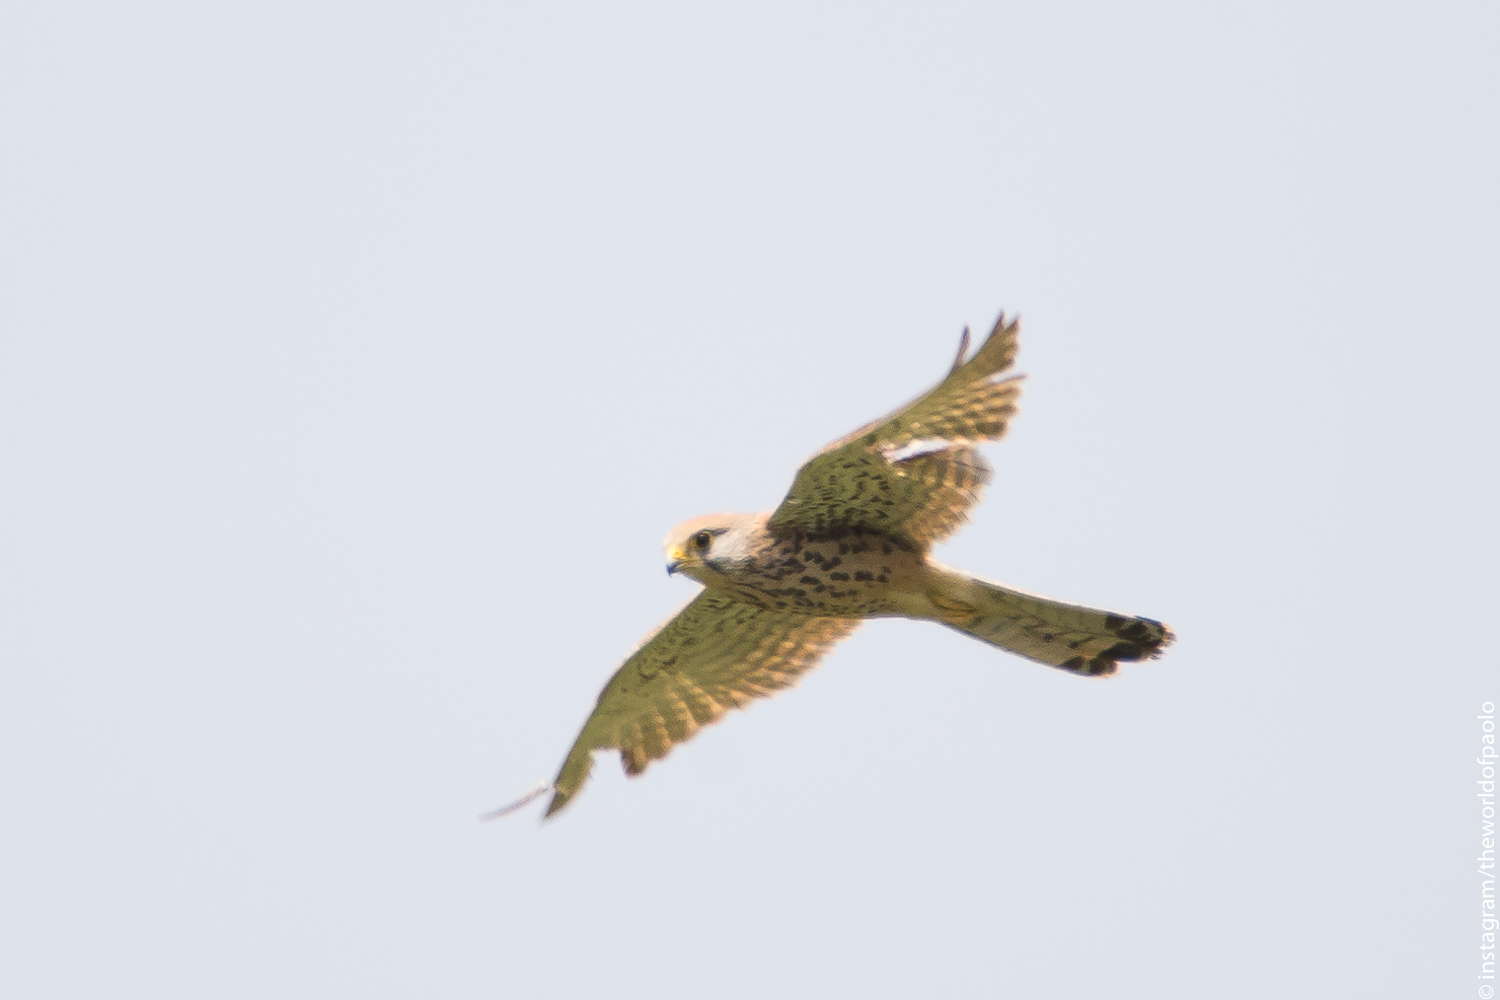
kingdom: Animalia
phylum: Chordata
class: Aves
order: Falconiformes
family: Falconidae
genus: Falco
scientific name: Falco tinnunculus
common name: Common kestrel
